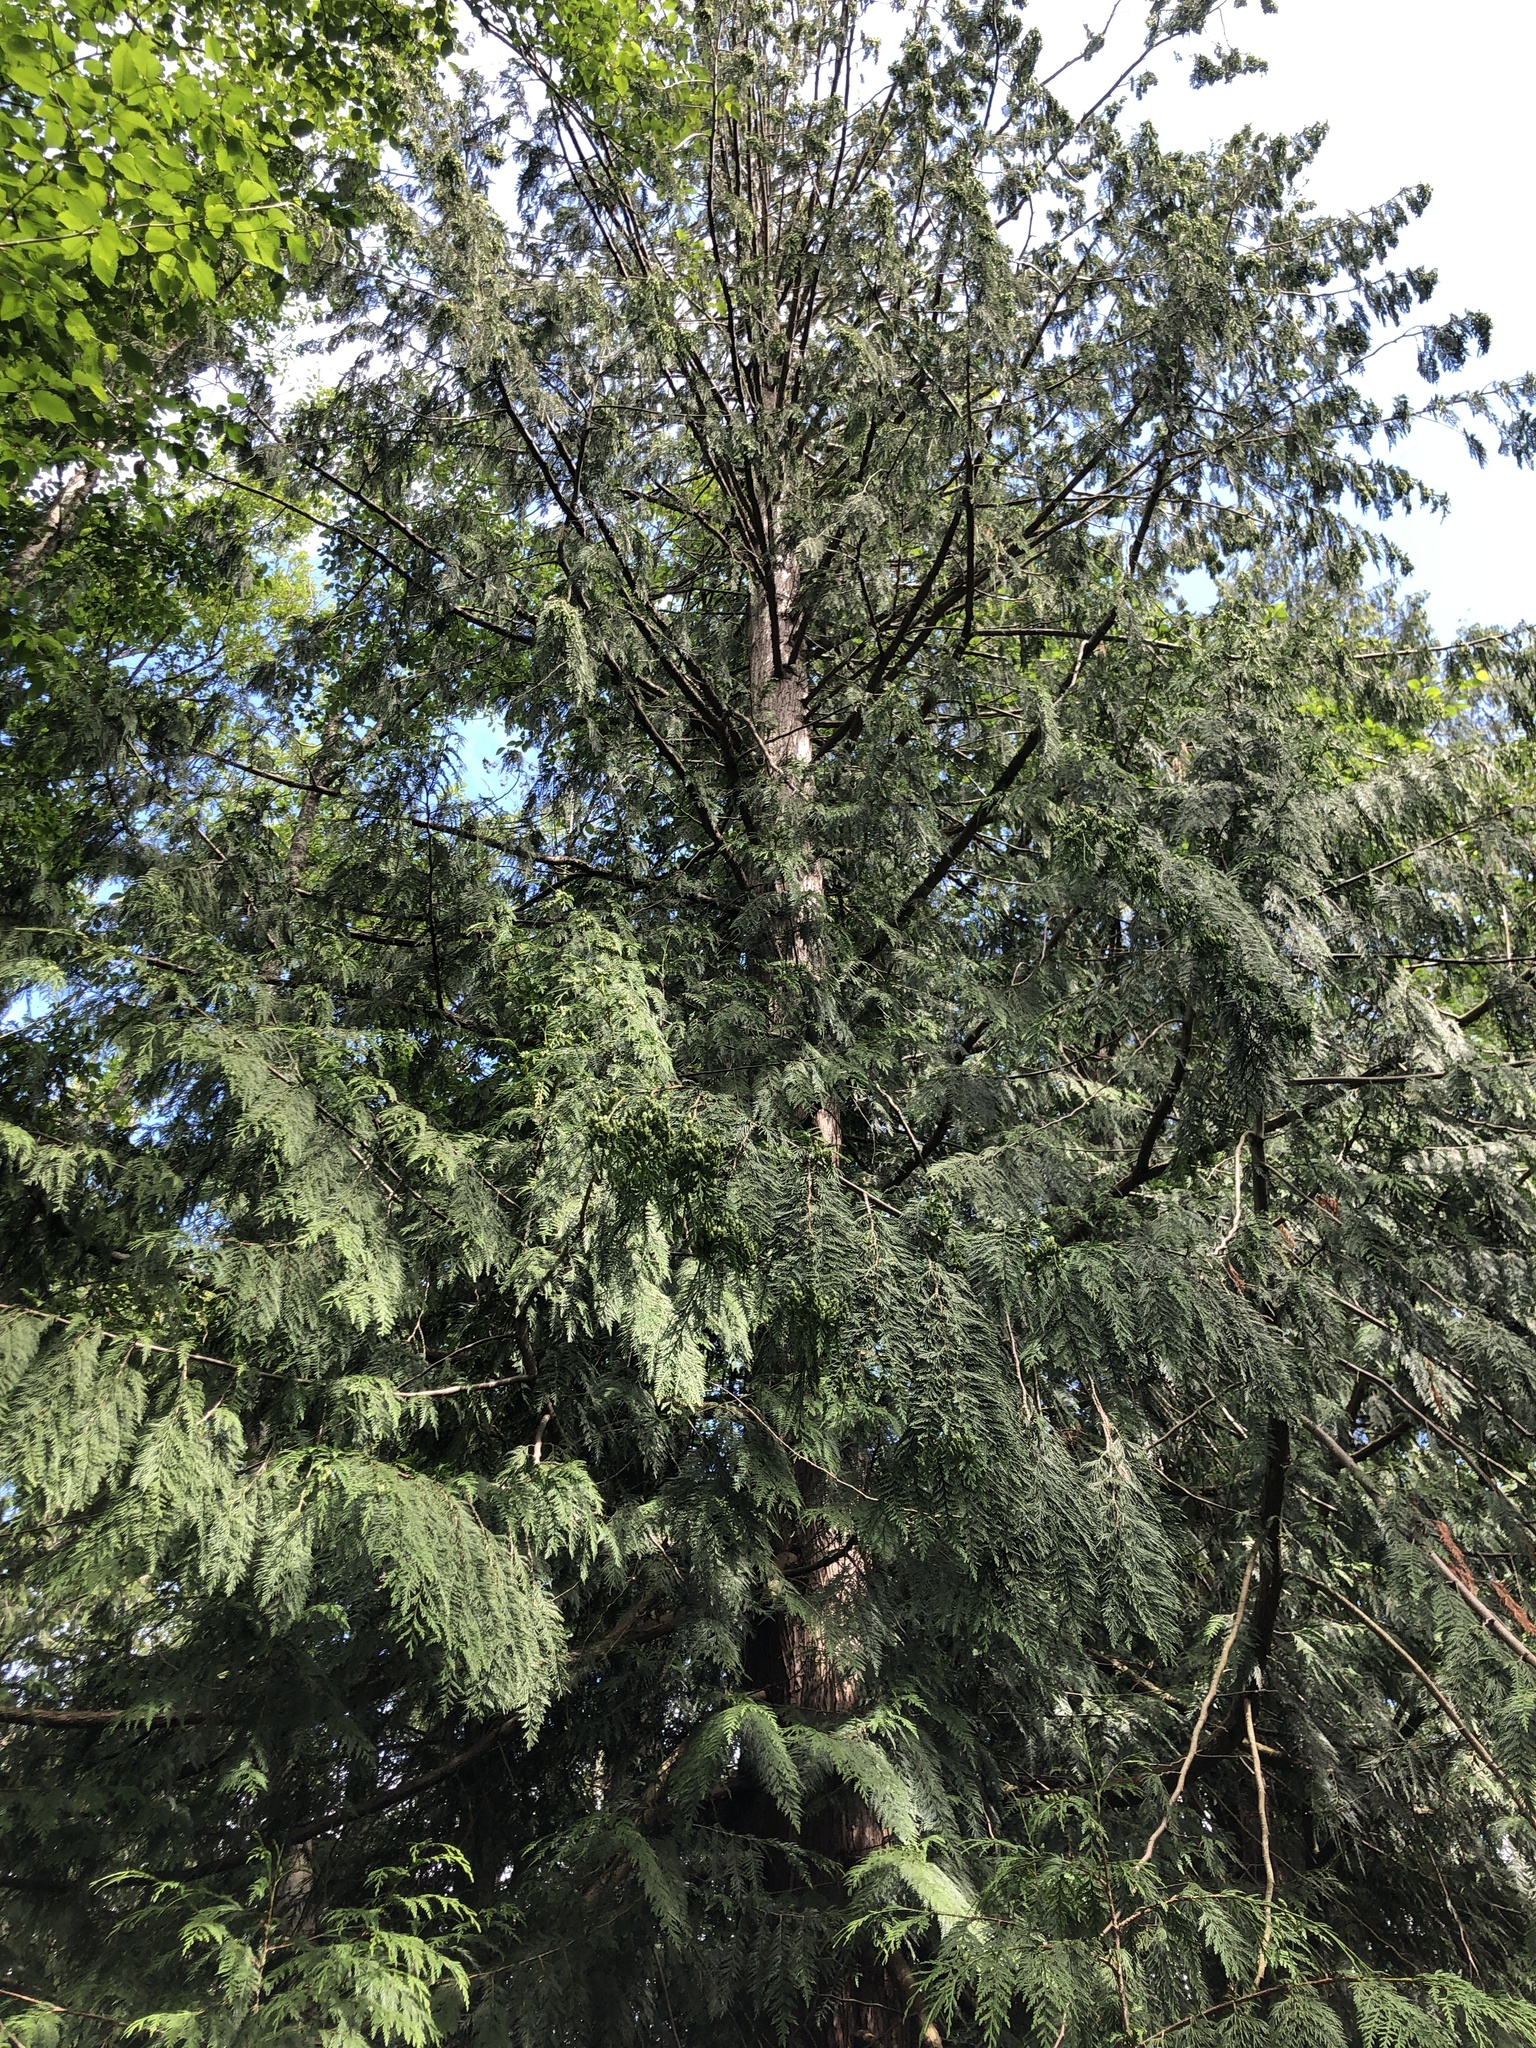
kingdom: Plantae
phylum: Tracheophyta
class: Pinopsida
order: Pinales
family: Cupressaceae
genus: Thuja
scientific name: Thuja plicata
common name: Western red-cedar
